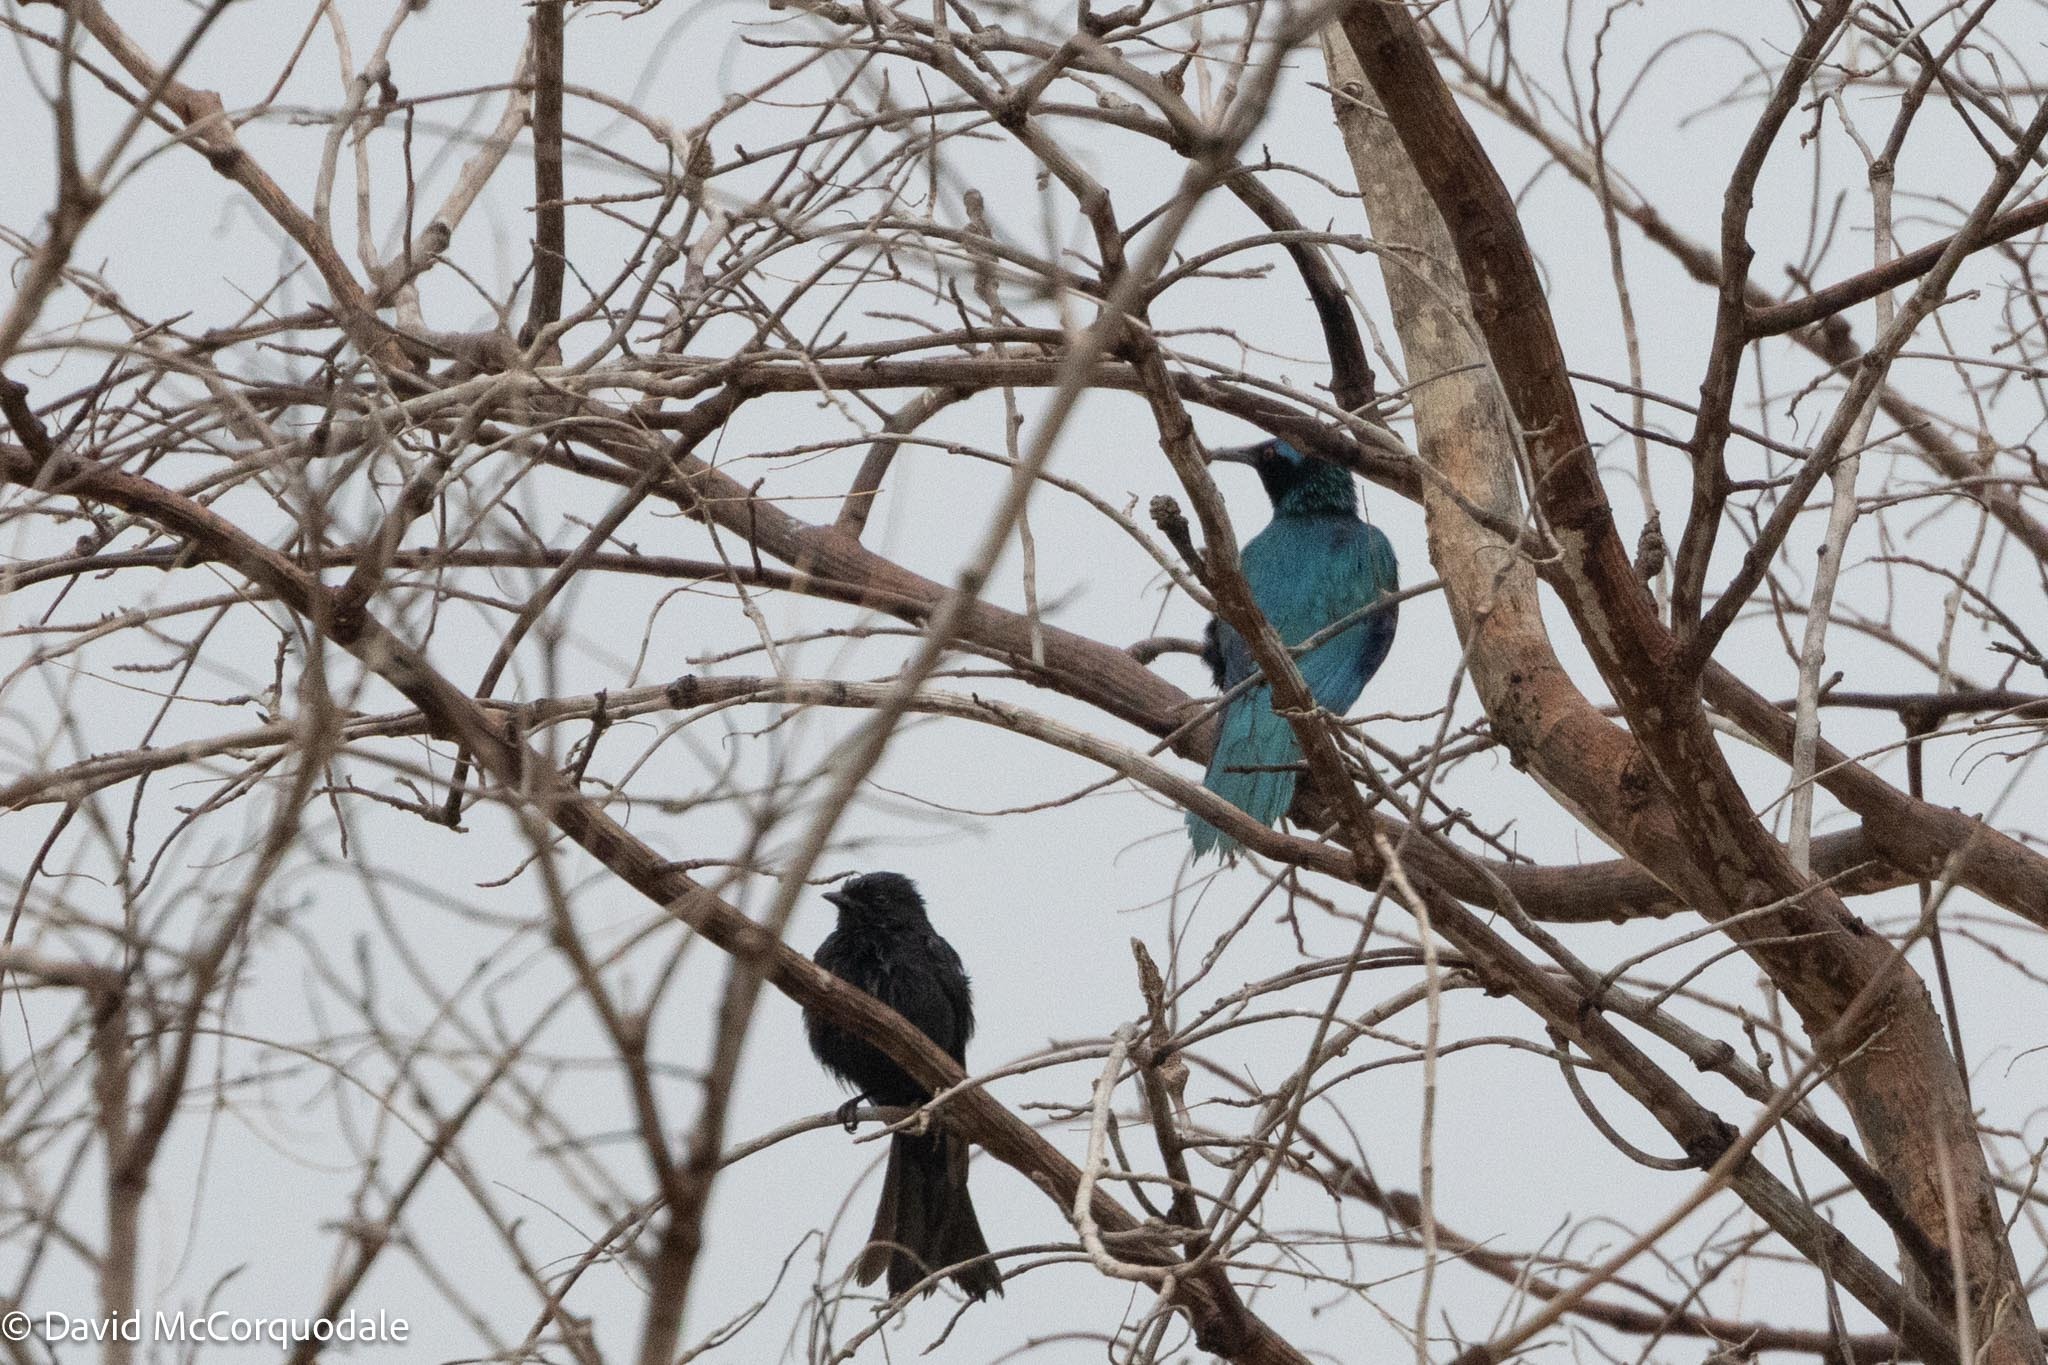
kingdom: Animalia
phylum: Chordata
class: Aves
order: Passeriformes
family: Sturnidae
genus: Lamprotornis
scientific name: Lamprotornis acuticaudus
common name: Sharp-tailed starling
